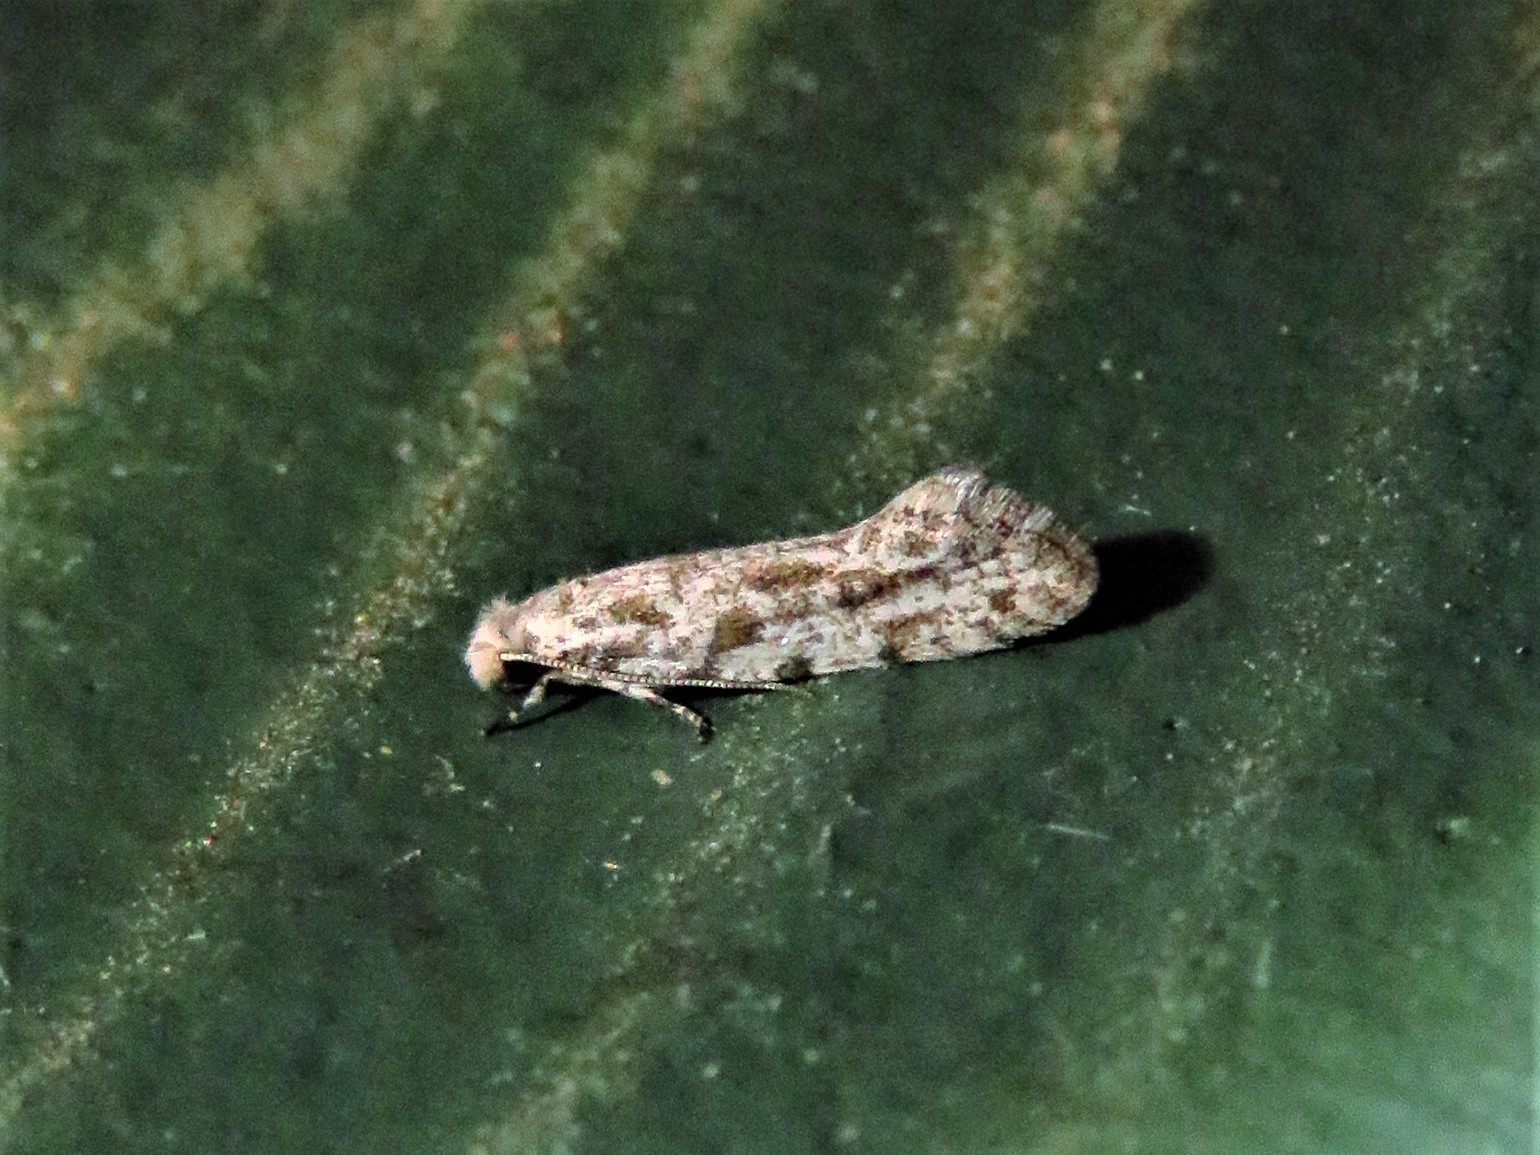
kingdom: Animalia
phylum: Arthropoda
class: Insecta
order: Lepidoptera
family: Meessiidae
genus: Diachorisia
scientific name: Diachorisia velatella
